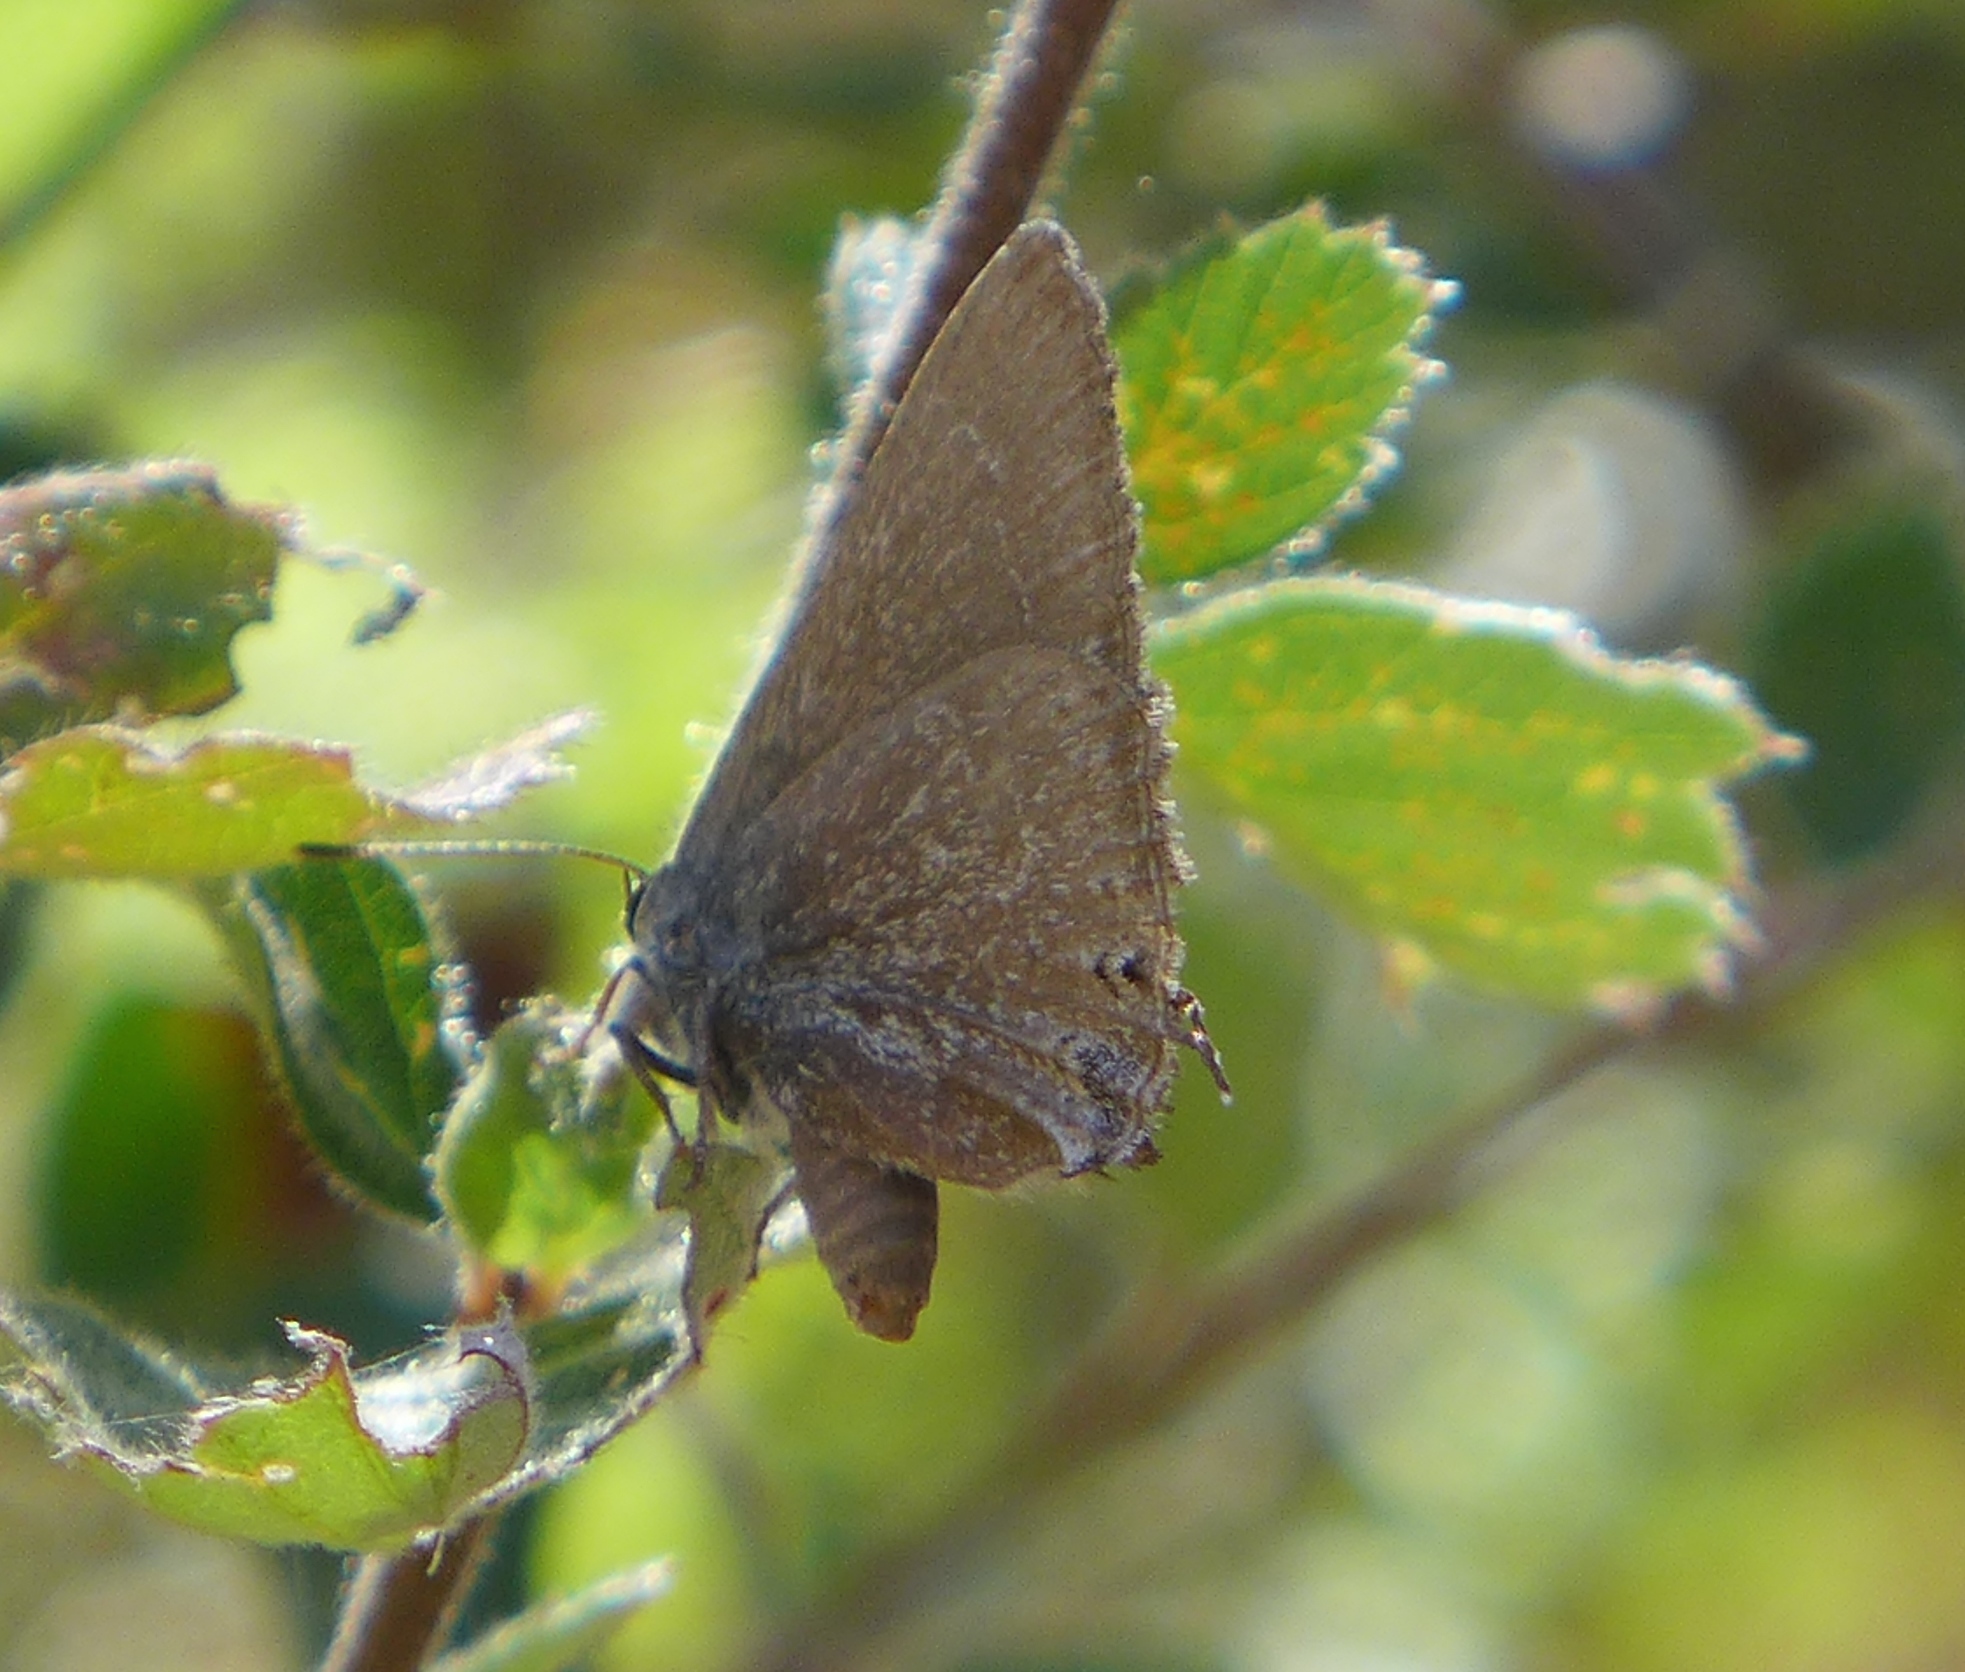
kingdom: Animalia
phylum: Arthropoda
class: Insecta
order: Lepidoptera
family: Lycaenidae
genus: Thecla
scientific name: Thecla tetra
